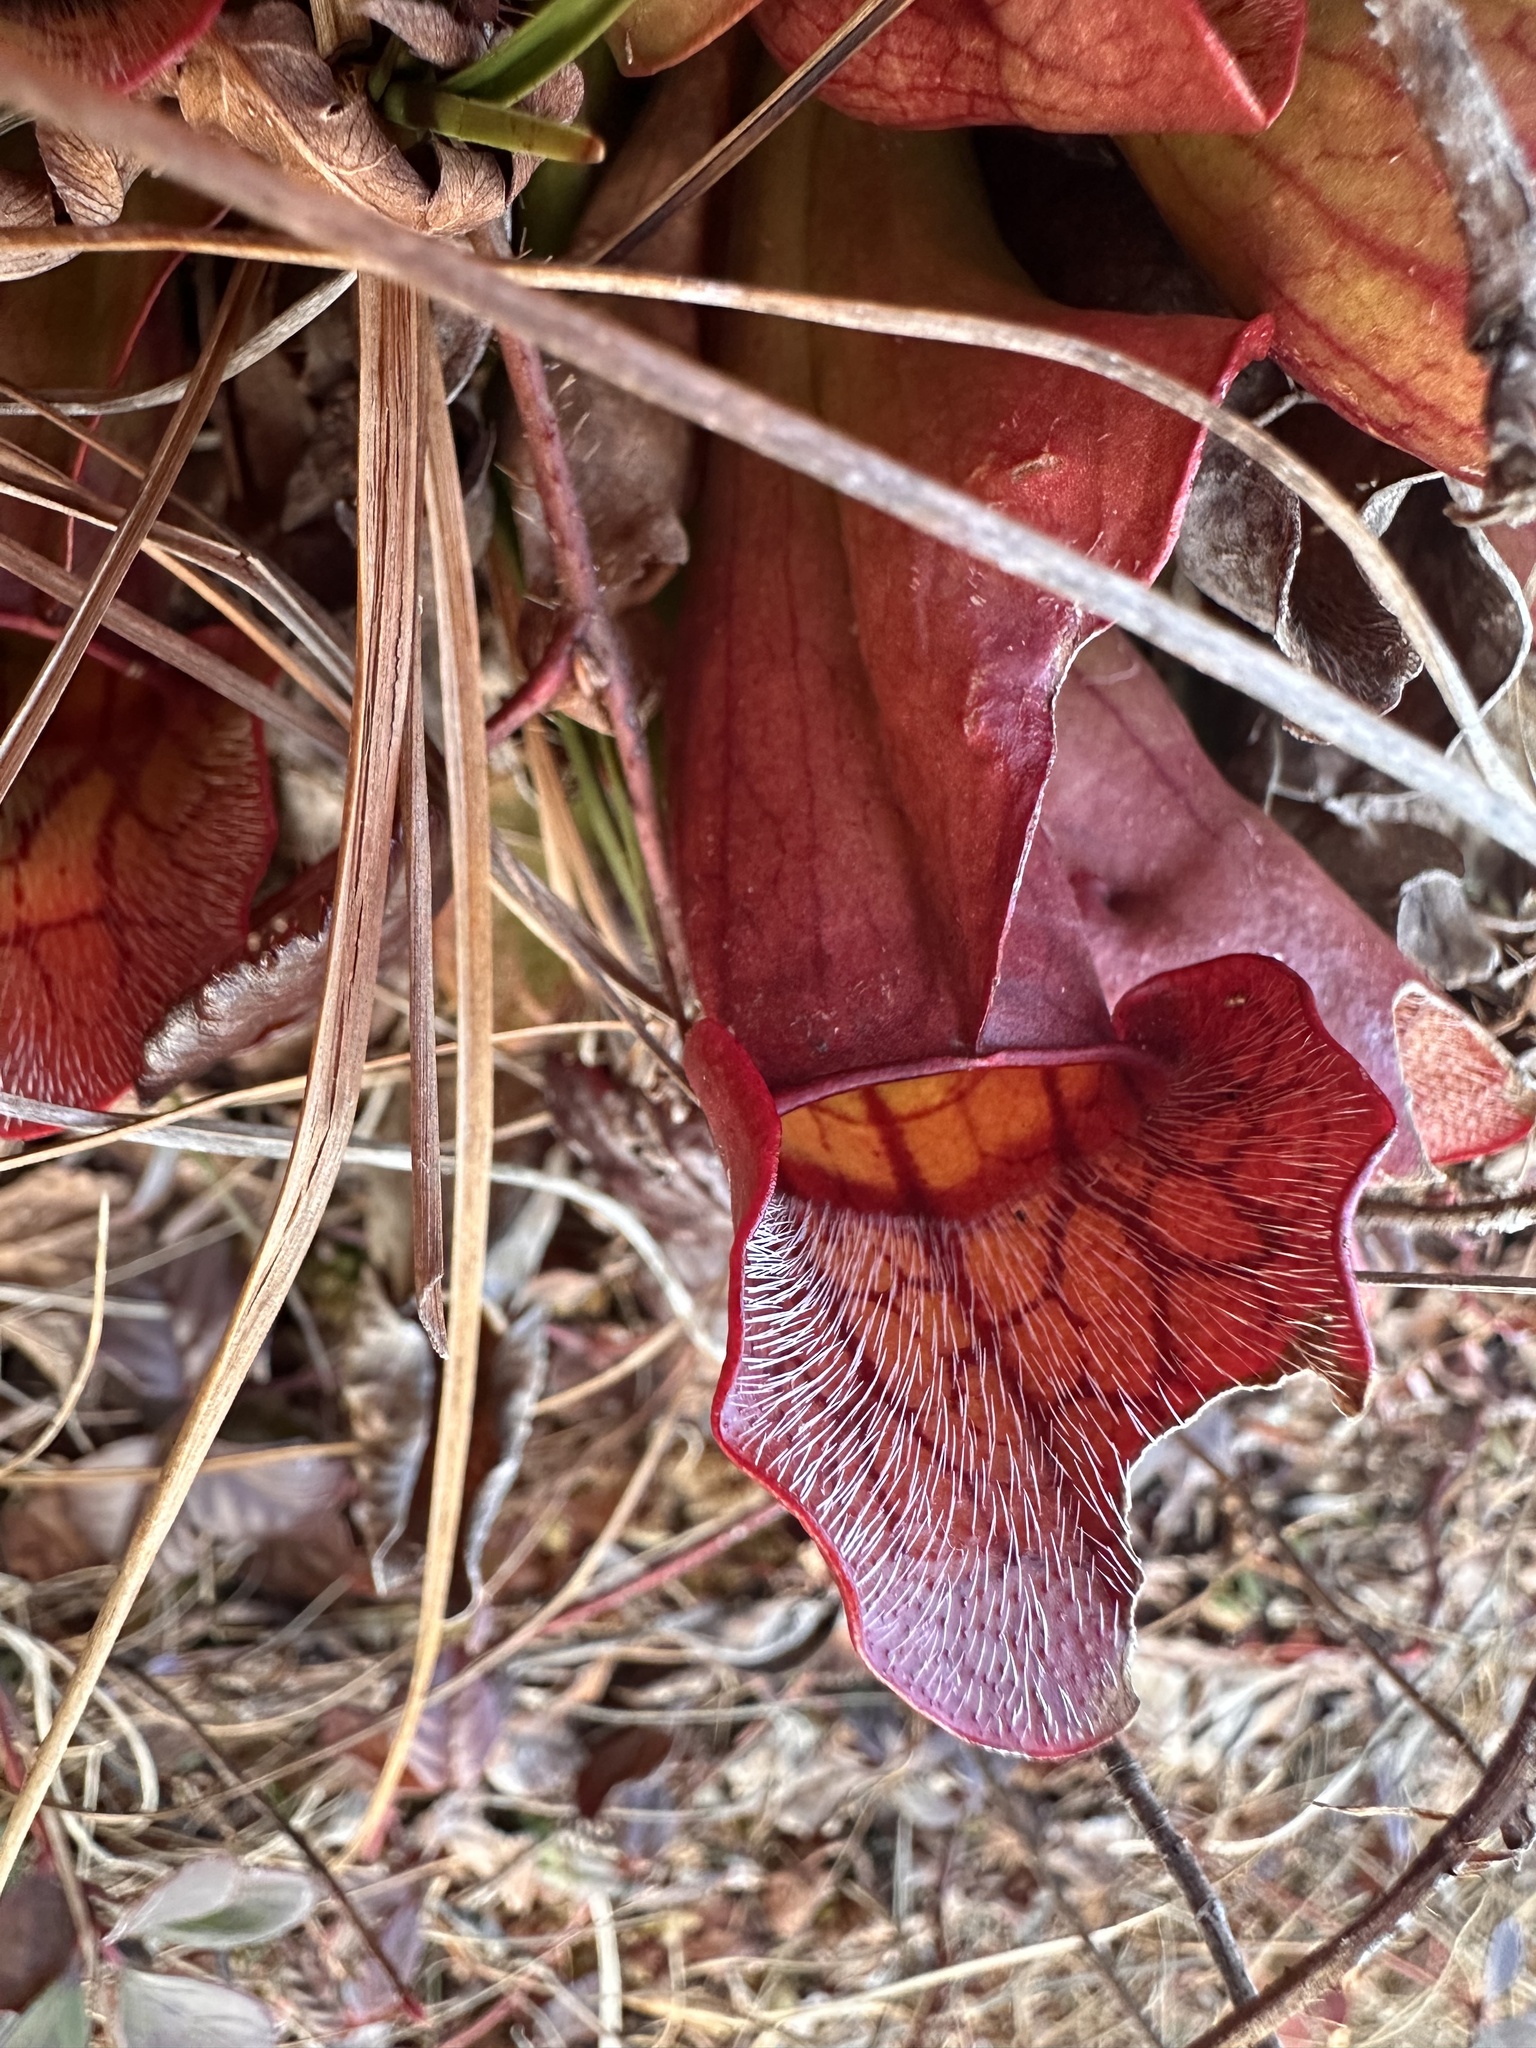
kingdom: Plantae
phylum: Tracheophyta
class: Magnoliopsida
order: Ericales
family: Sarraceniaceae
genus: Sarracenia
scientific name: Sarracenia purpurea
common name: Pitcherplant
